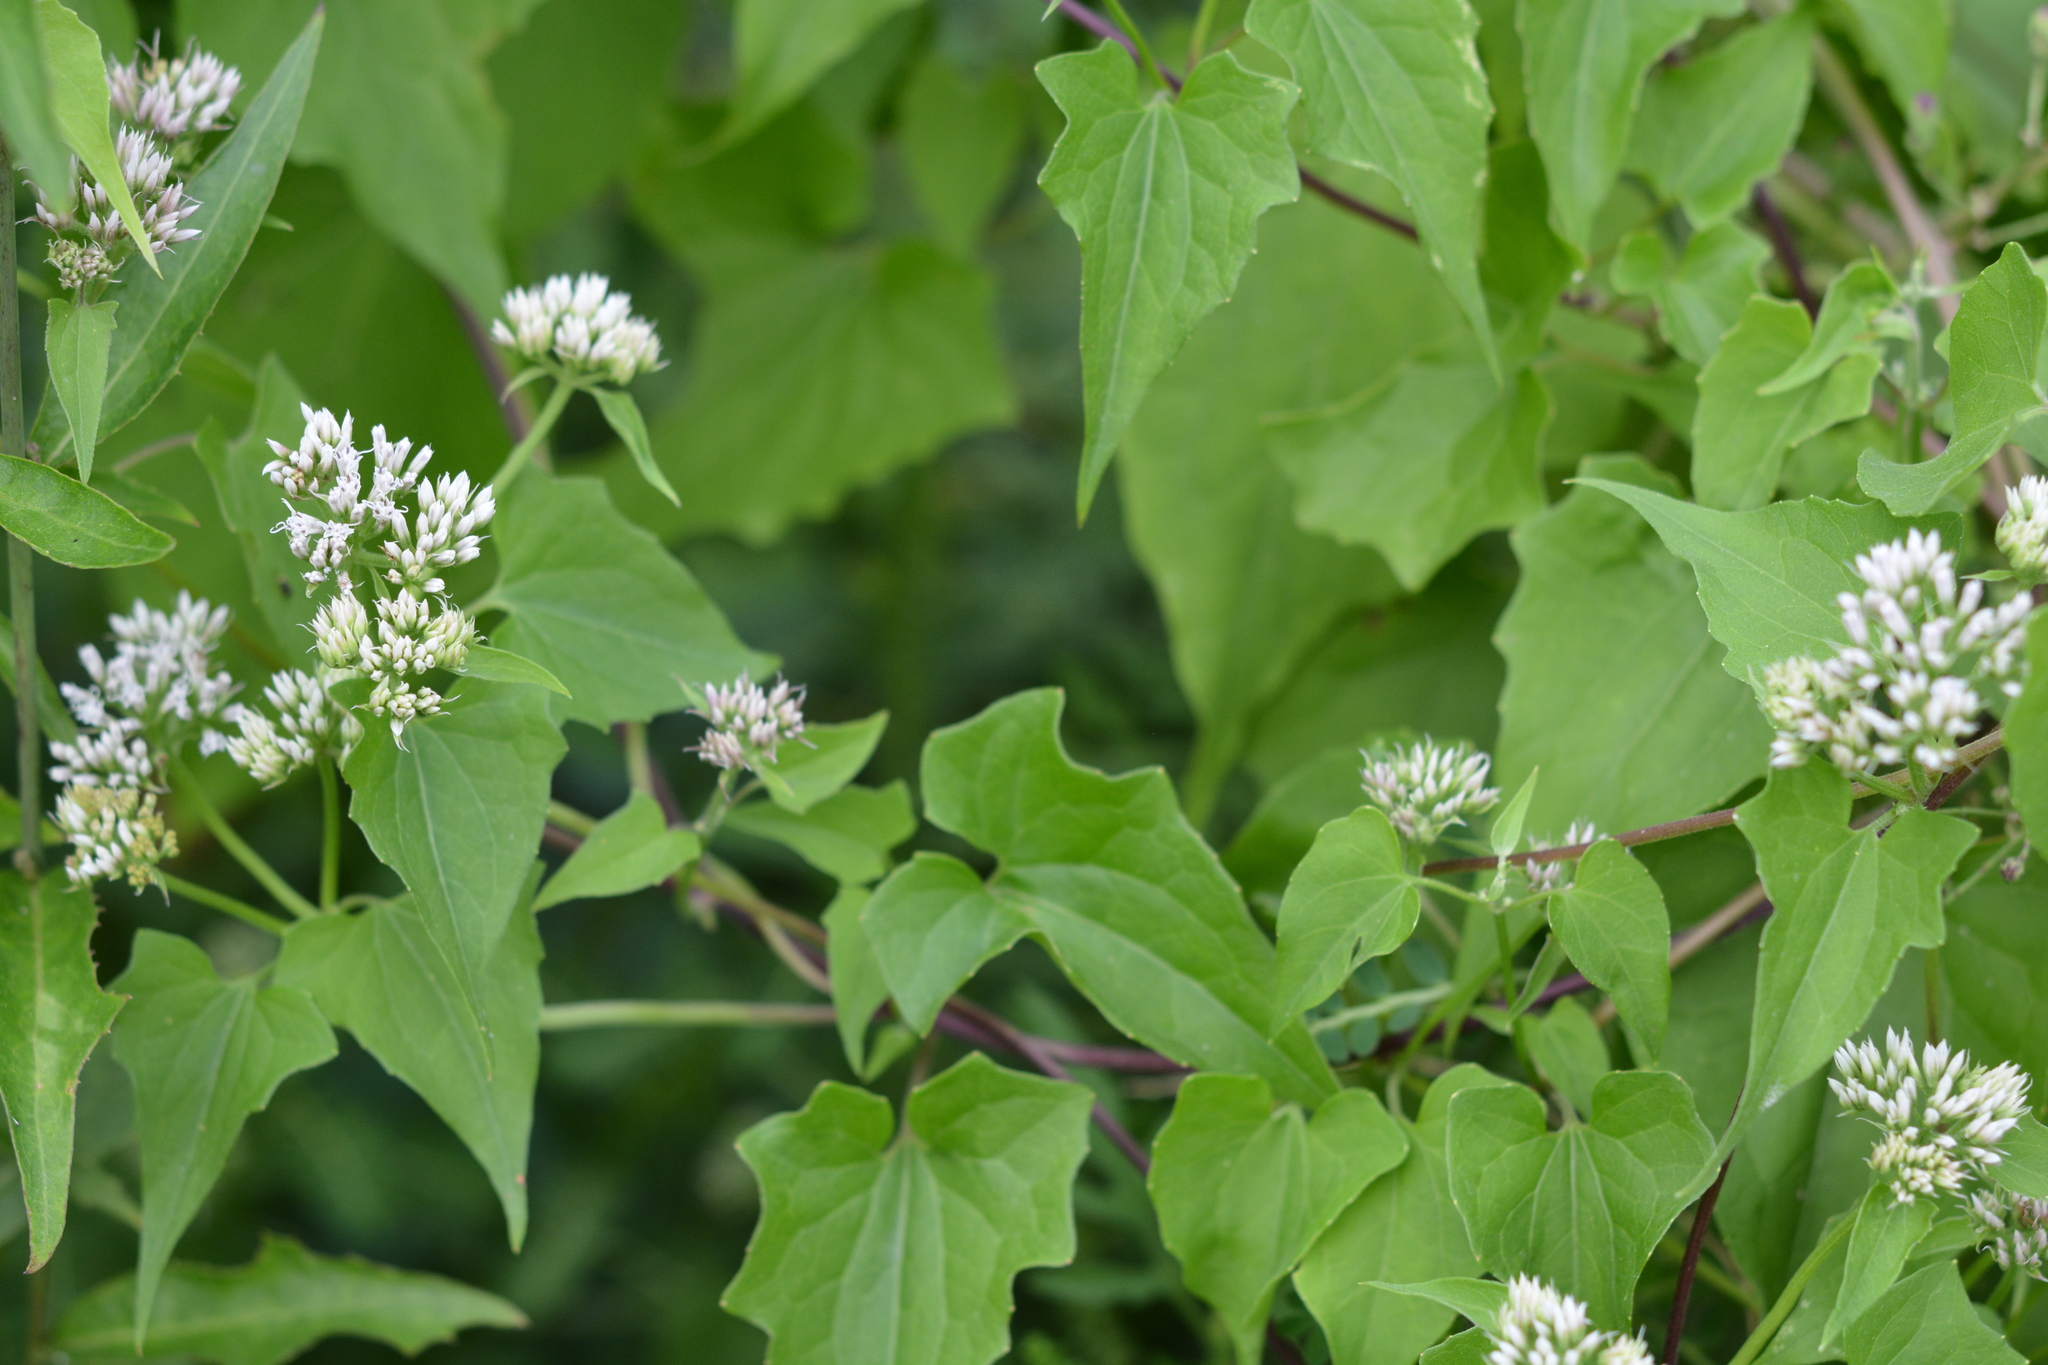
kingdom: Plantae
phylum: Tracheophyta
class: Magnoliopsida
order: Asterales
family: Asteraceae
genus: Mikania
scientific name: Mikania scandens
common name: Climbing hempvine
